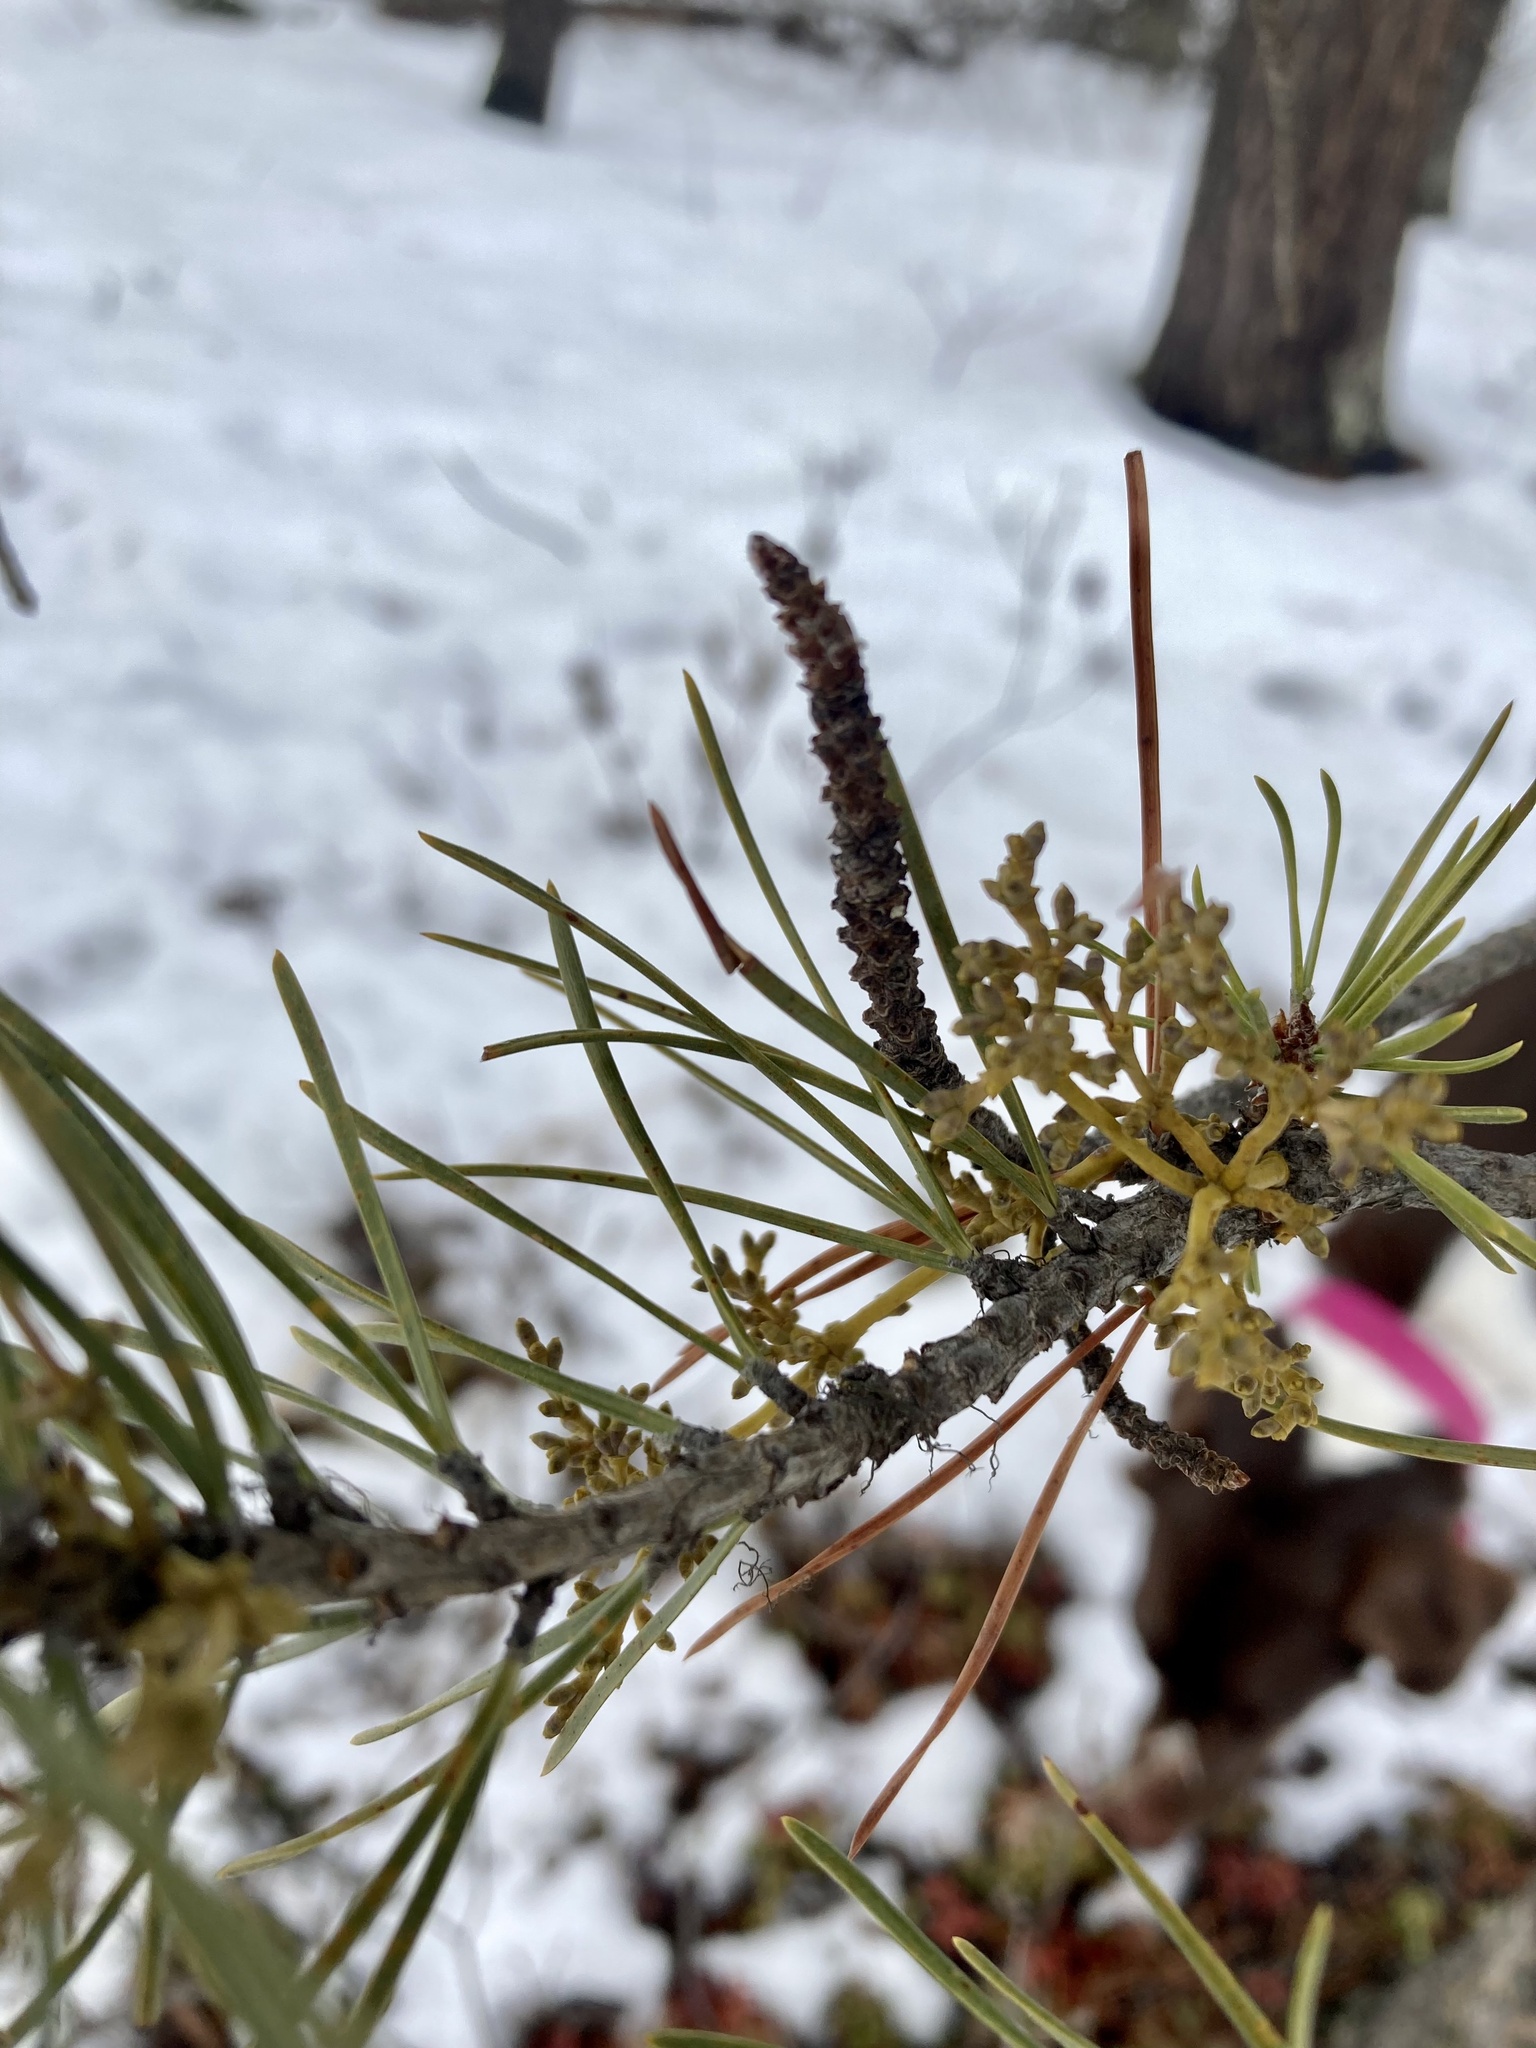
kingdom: Plantae
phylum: Tracheophyta
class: Magnoliopsida
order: Santalales
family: Viscaceae
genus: Arceuthobium
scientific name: Arceuthobium americanum
